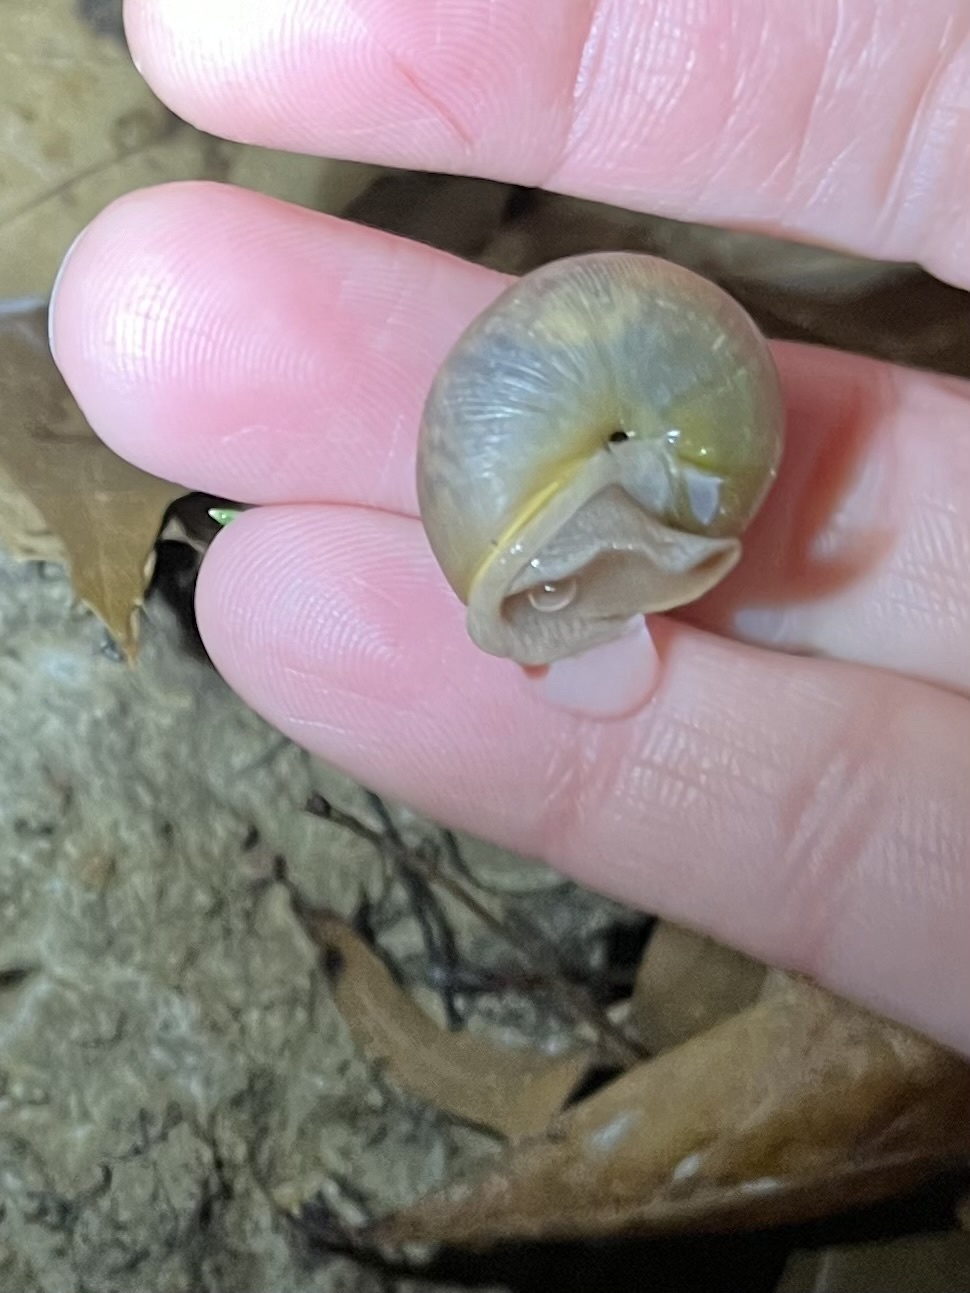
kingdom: Animalia
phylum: Mollusca
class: Gastropoda
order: Stylommatophora
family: Polygyridae
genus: Mesodon
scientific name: Mesodon thyroidus
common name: White-lip globe
